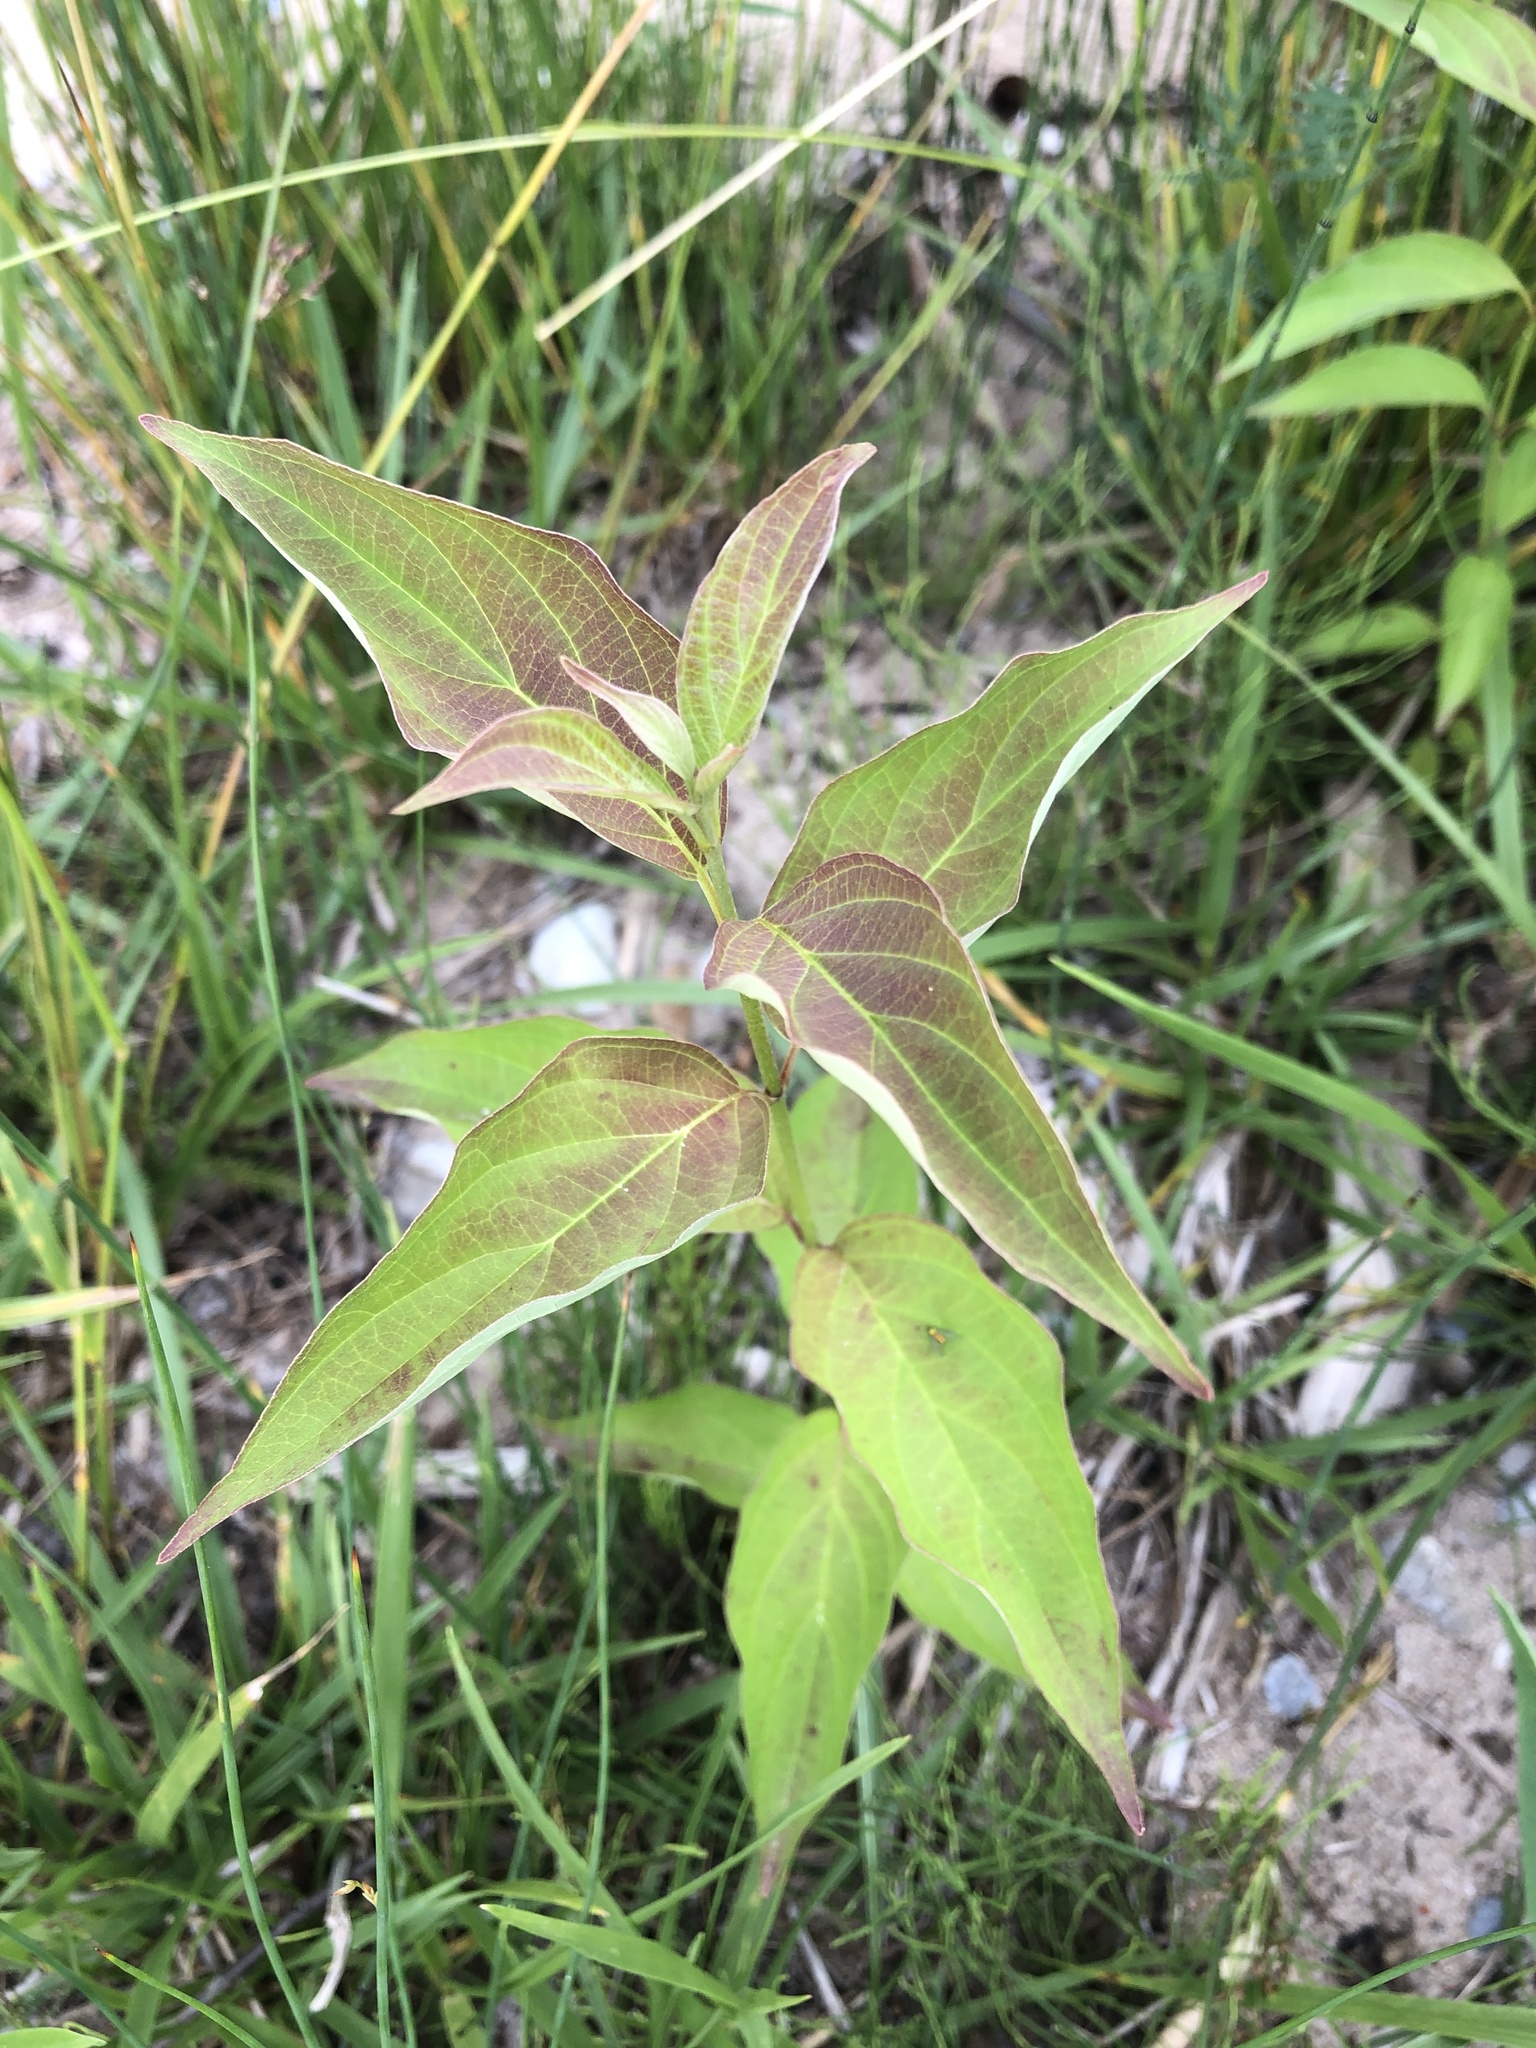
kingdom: Plantae
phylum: Tracheophyta
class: Magnoliopsida
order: Gentianales
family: Apocynaceae
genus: Vincetoxicum
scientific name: Vincetoxicum rossicum
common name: Dog-strangling vine
